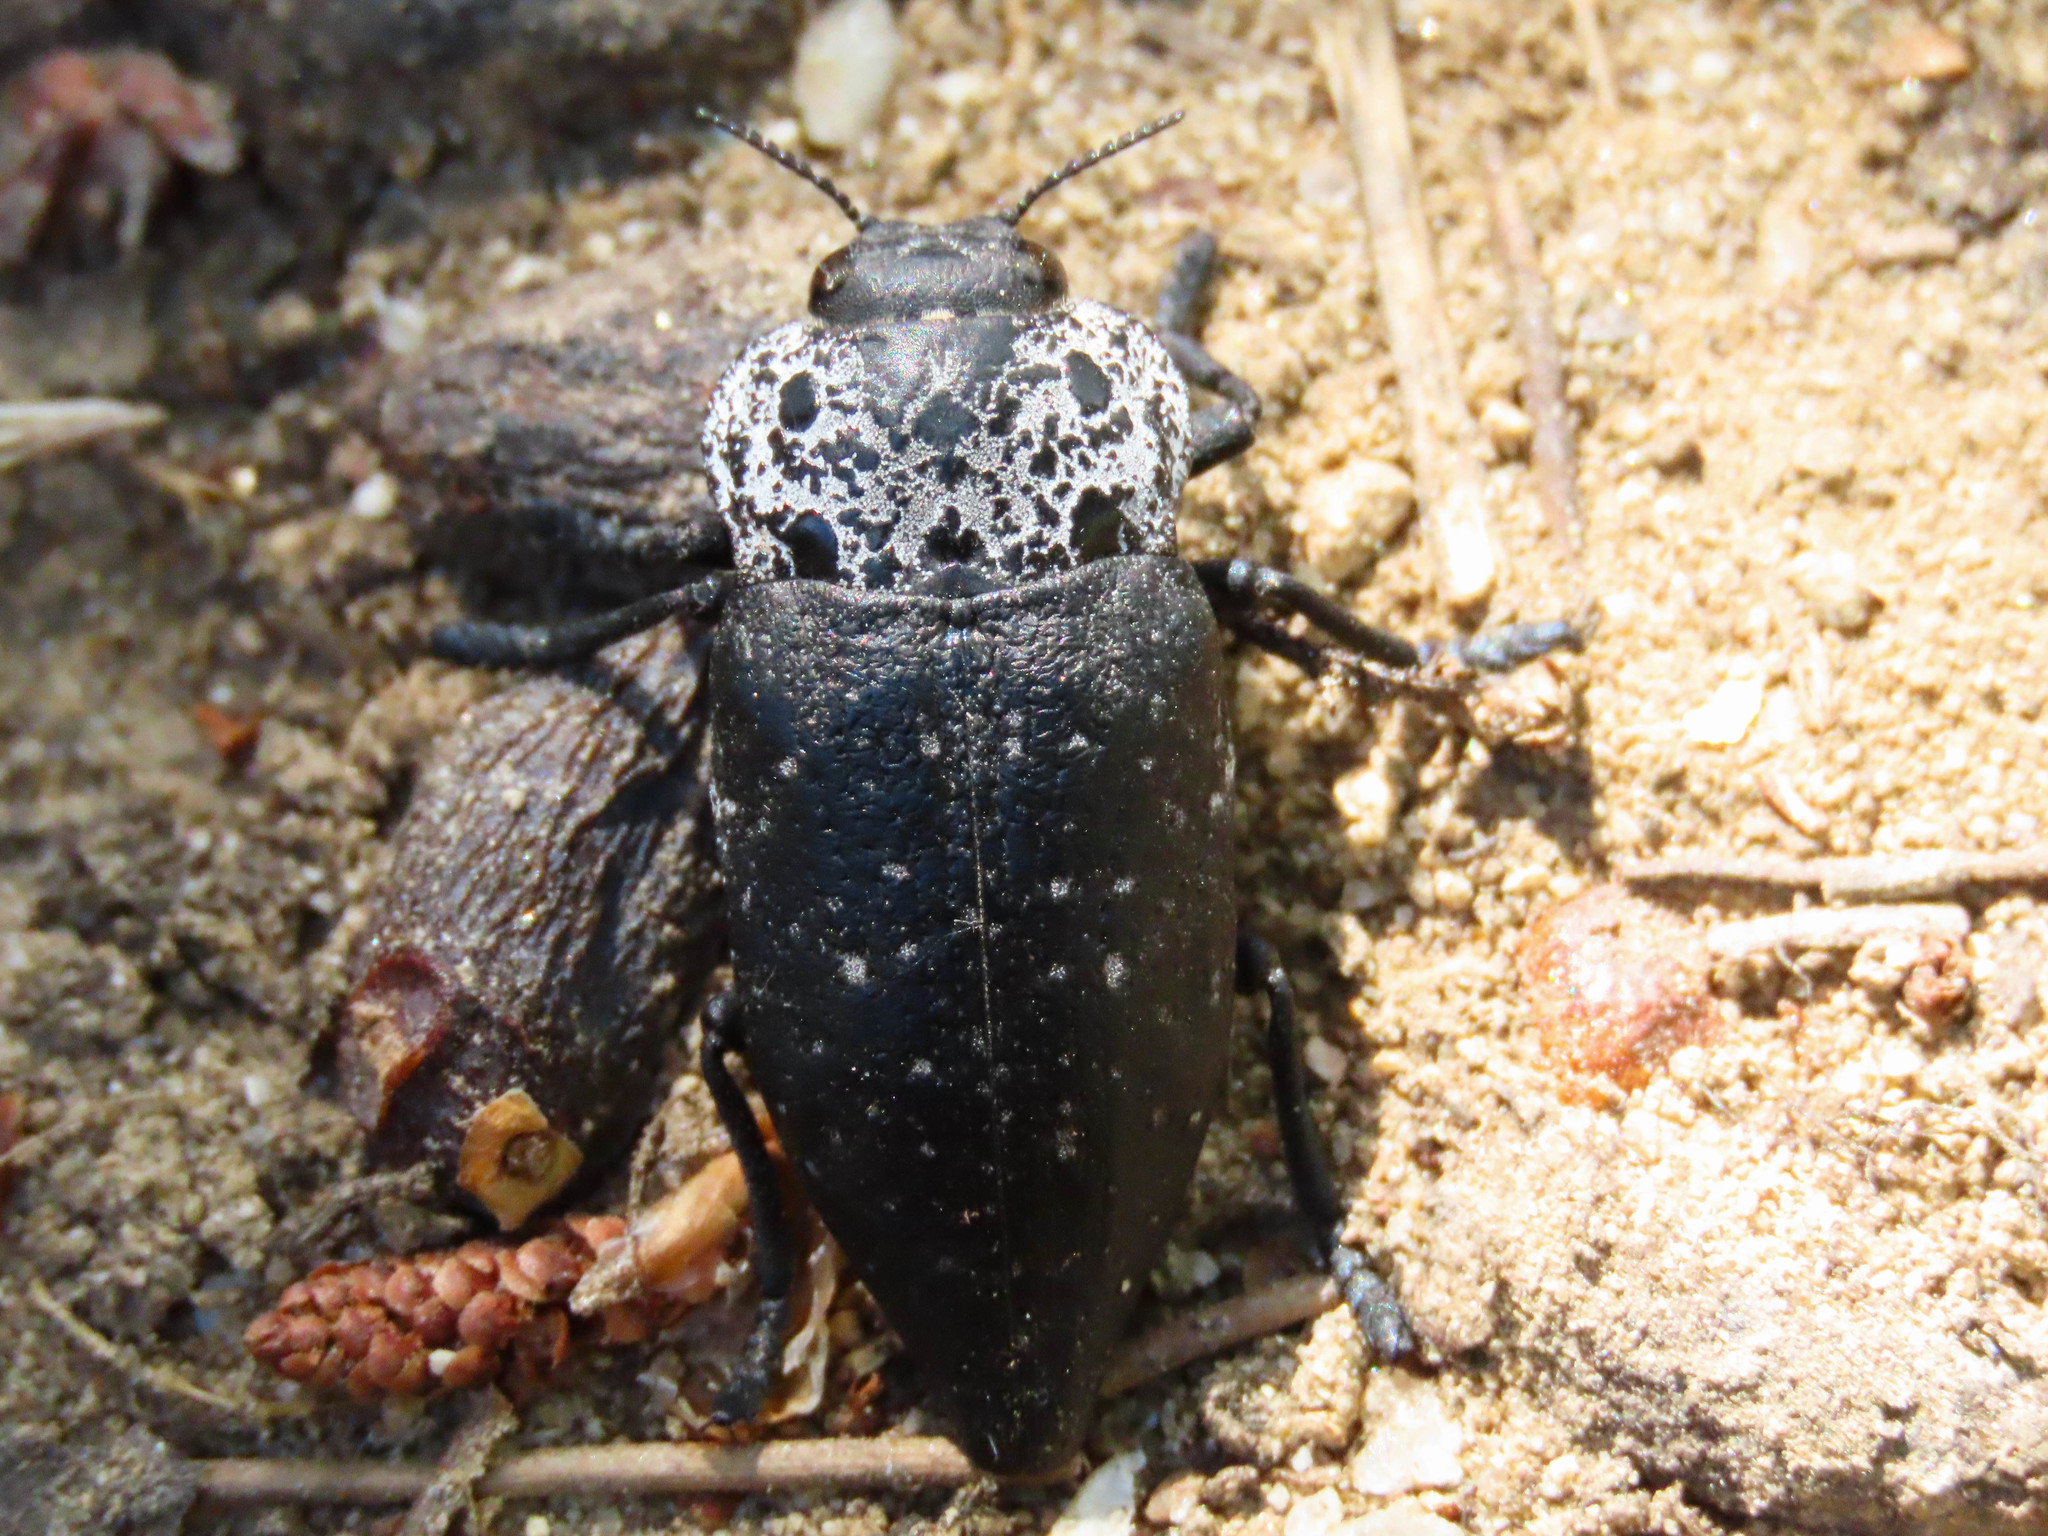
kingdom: Animalia
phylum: Arthropoda
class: Insecta
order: Coleoptera
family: Buprestidae
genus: Capnodis
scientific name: Capnodis tenebrionis
